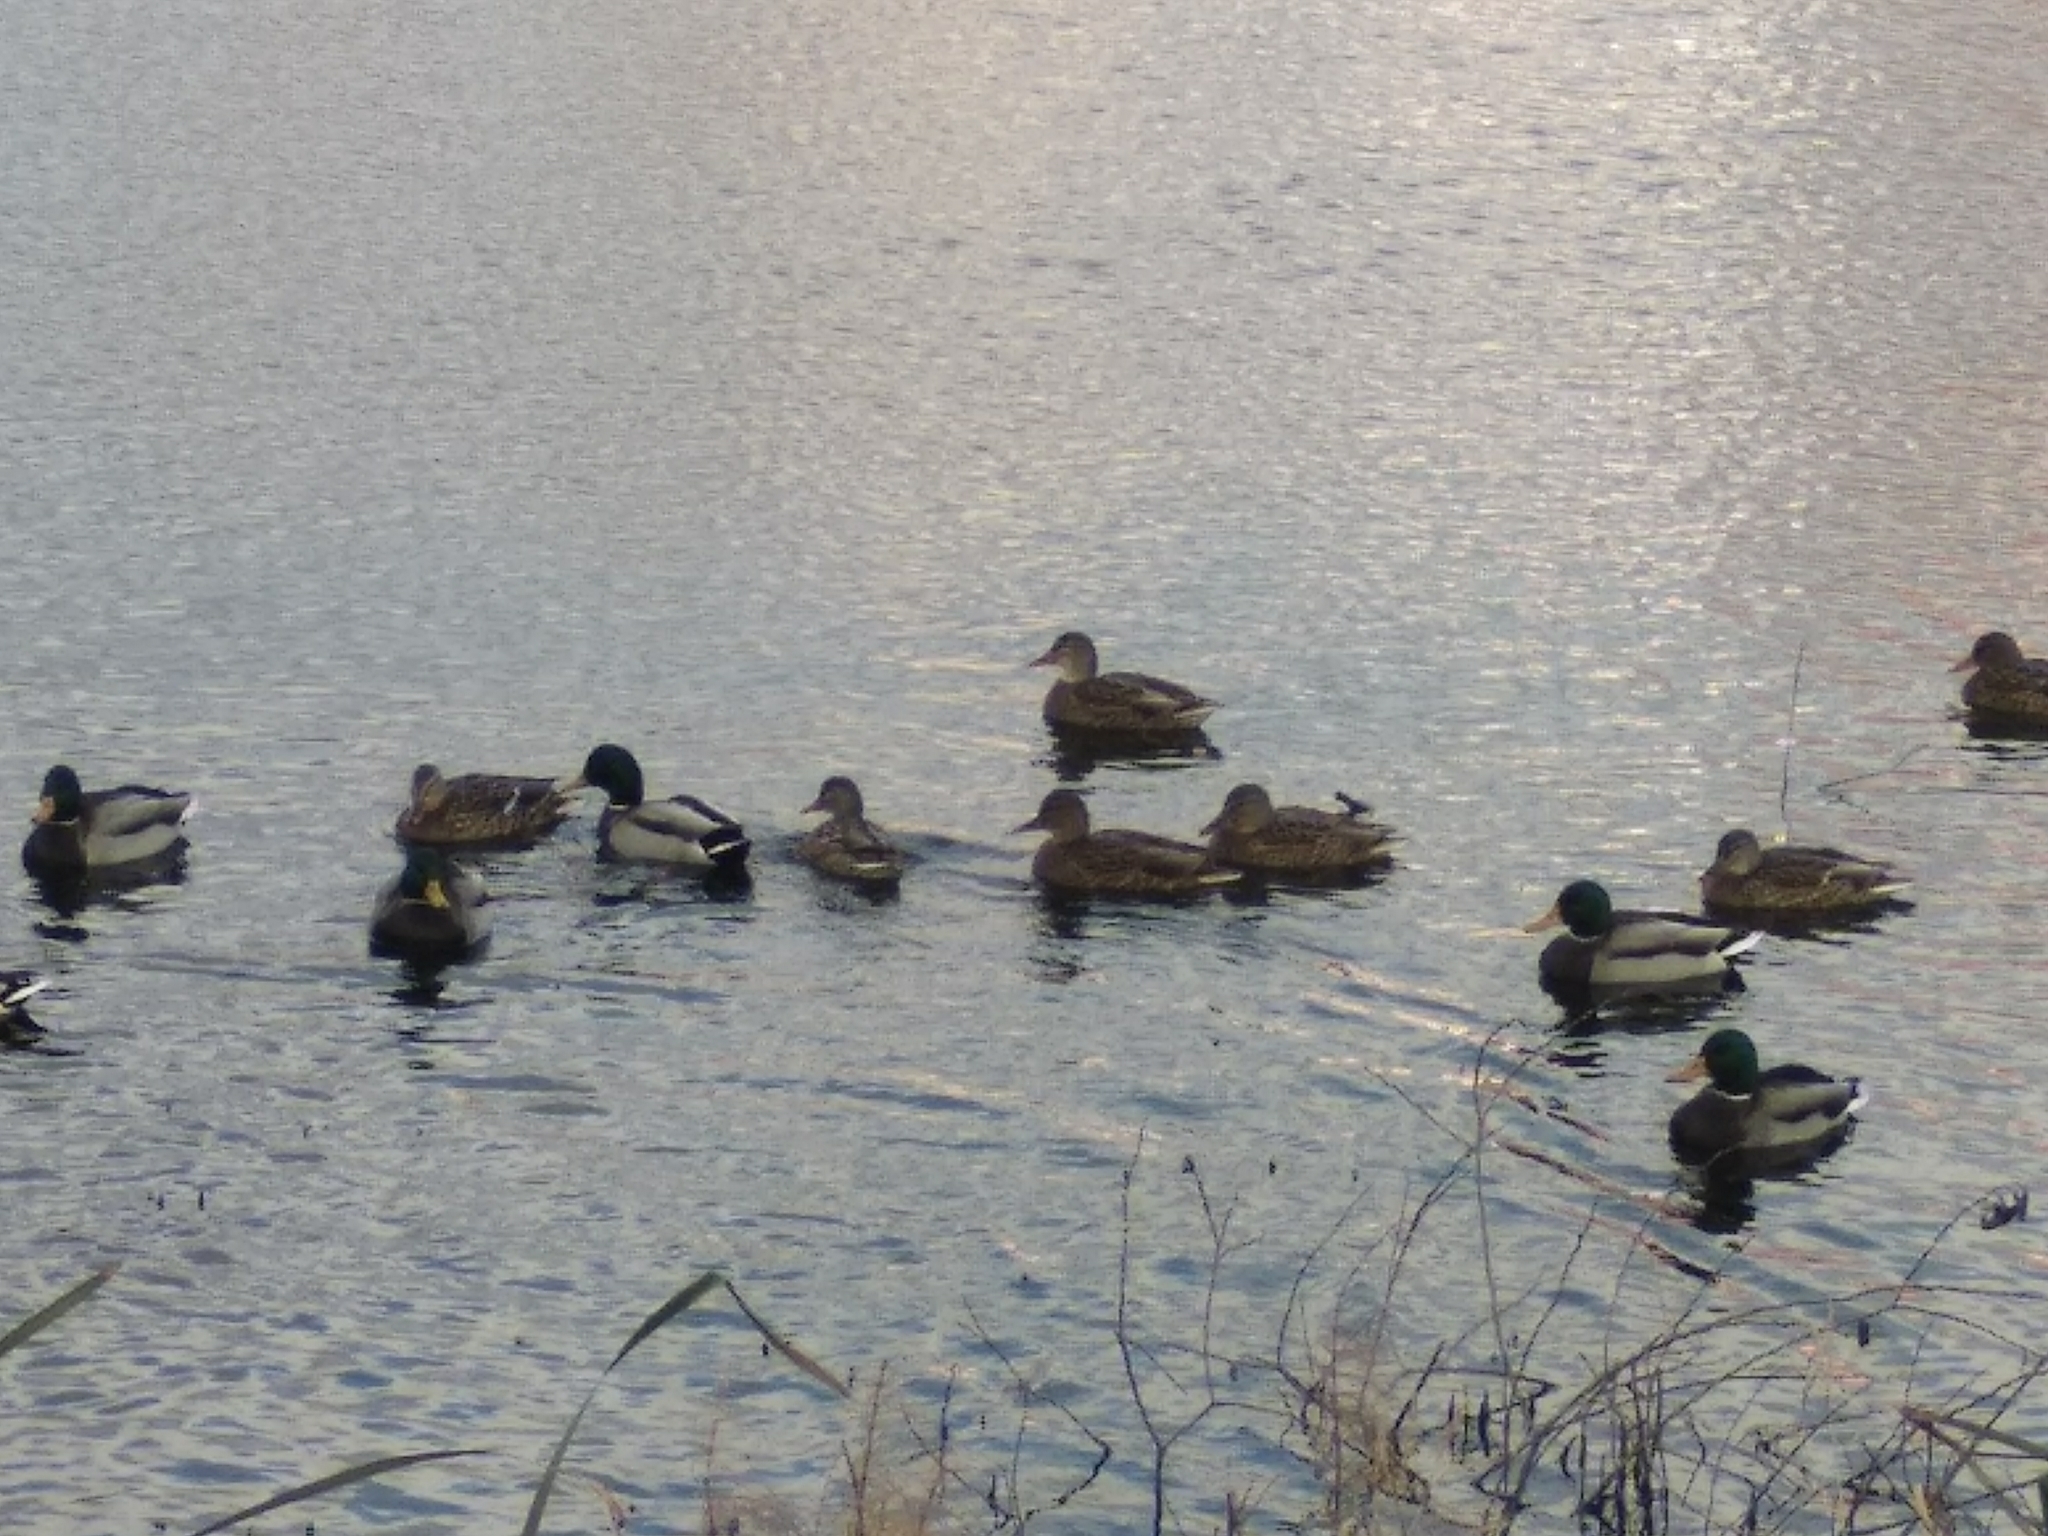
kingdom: Animalia
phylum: Chordata
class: Aves
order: Anseriformes
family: Anatidae
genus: Anas
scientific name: Anas platyrhynchos
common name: Mallard
